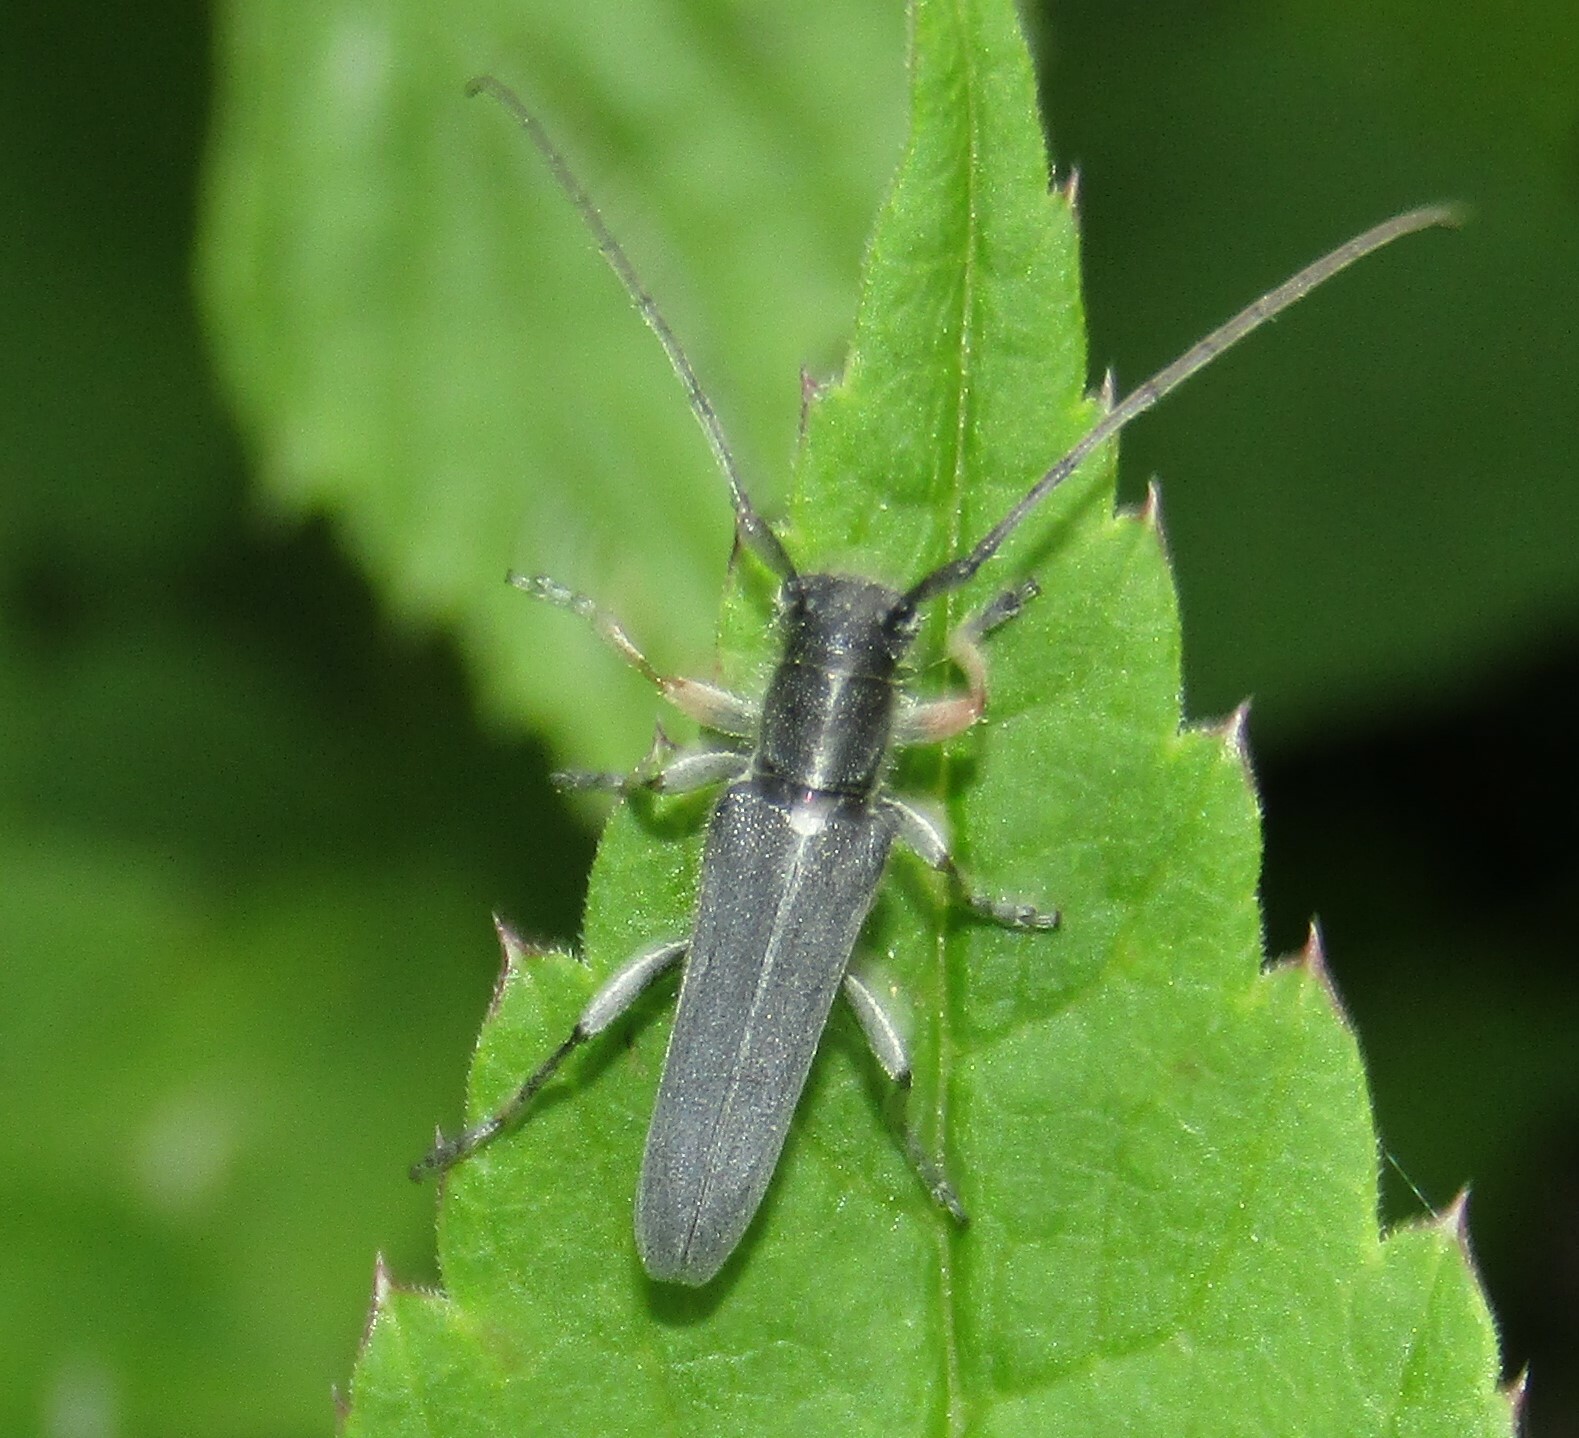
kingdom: Animalia
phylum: Arthropoda
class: Insecta
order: Coleoptera
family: Cerambycidae
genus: Phytoecia
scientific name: Phytoecia cylindrica
